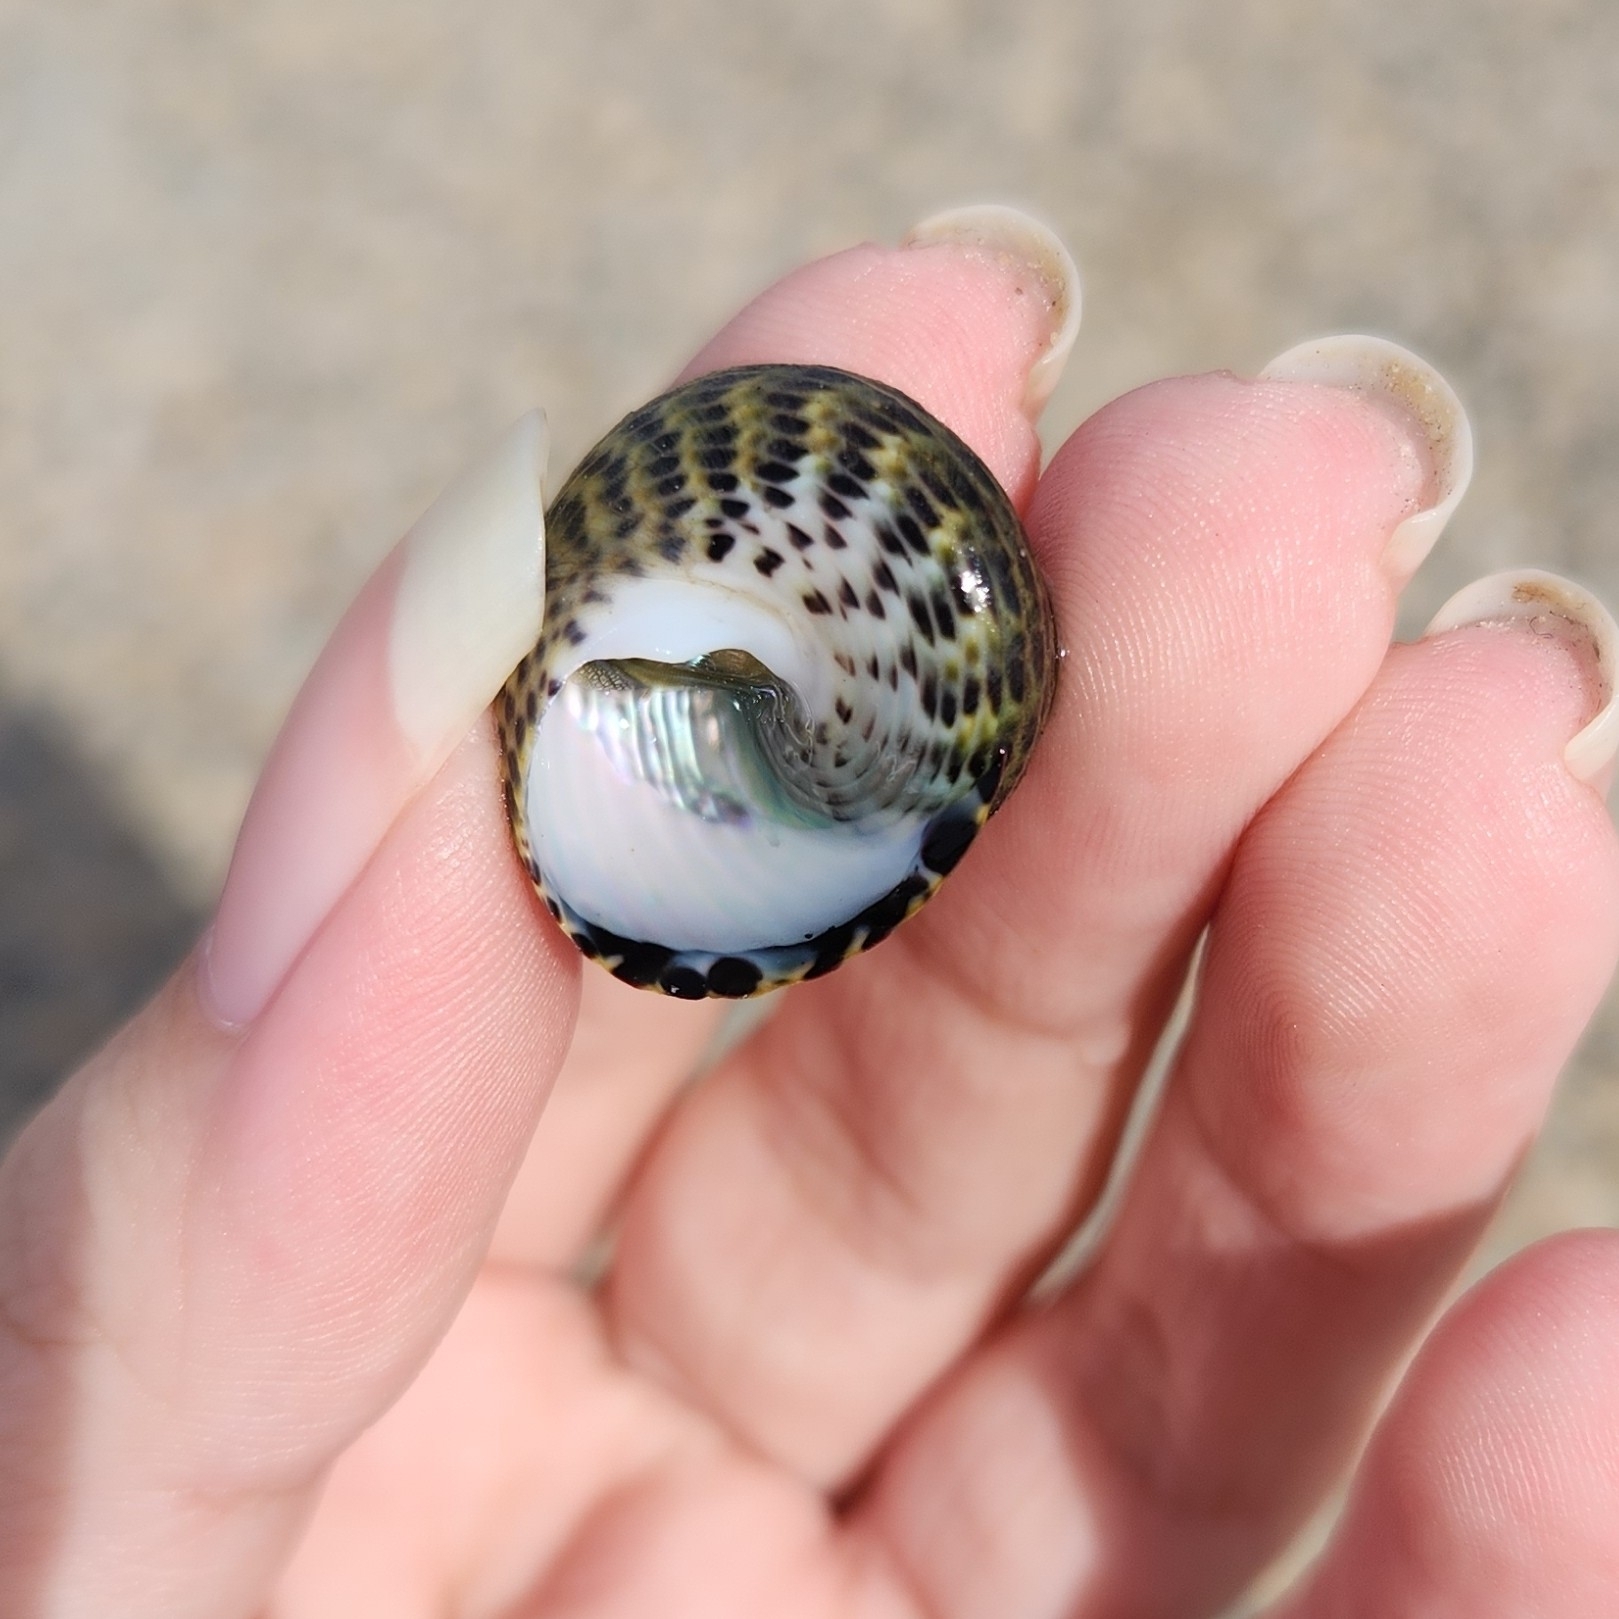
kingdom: Animalia
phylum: Mollusca
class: Gastropoda
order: Trochida
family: Trochidae
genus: Phorcus
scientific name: Phorcus turbinatus
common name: Turbinate monodont
